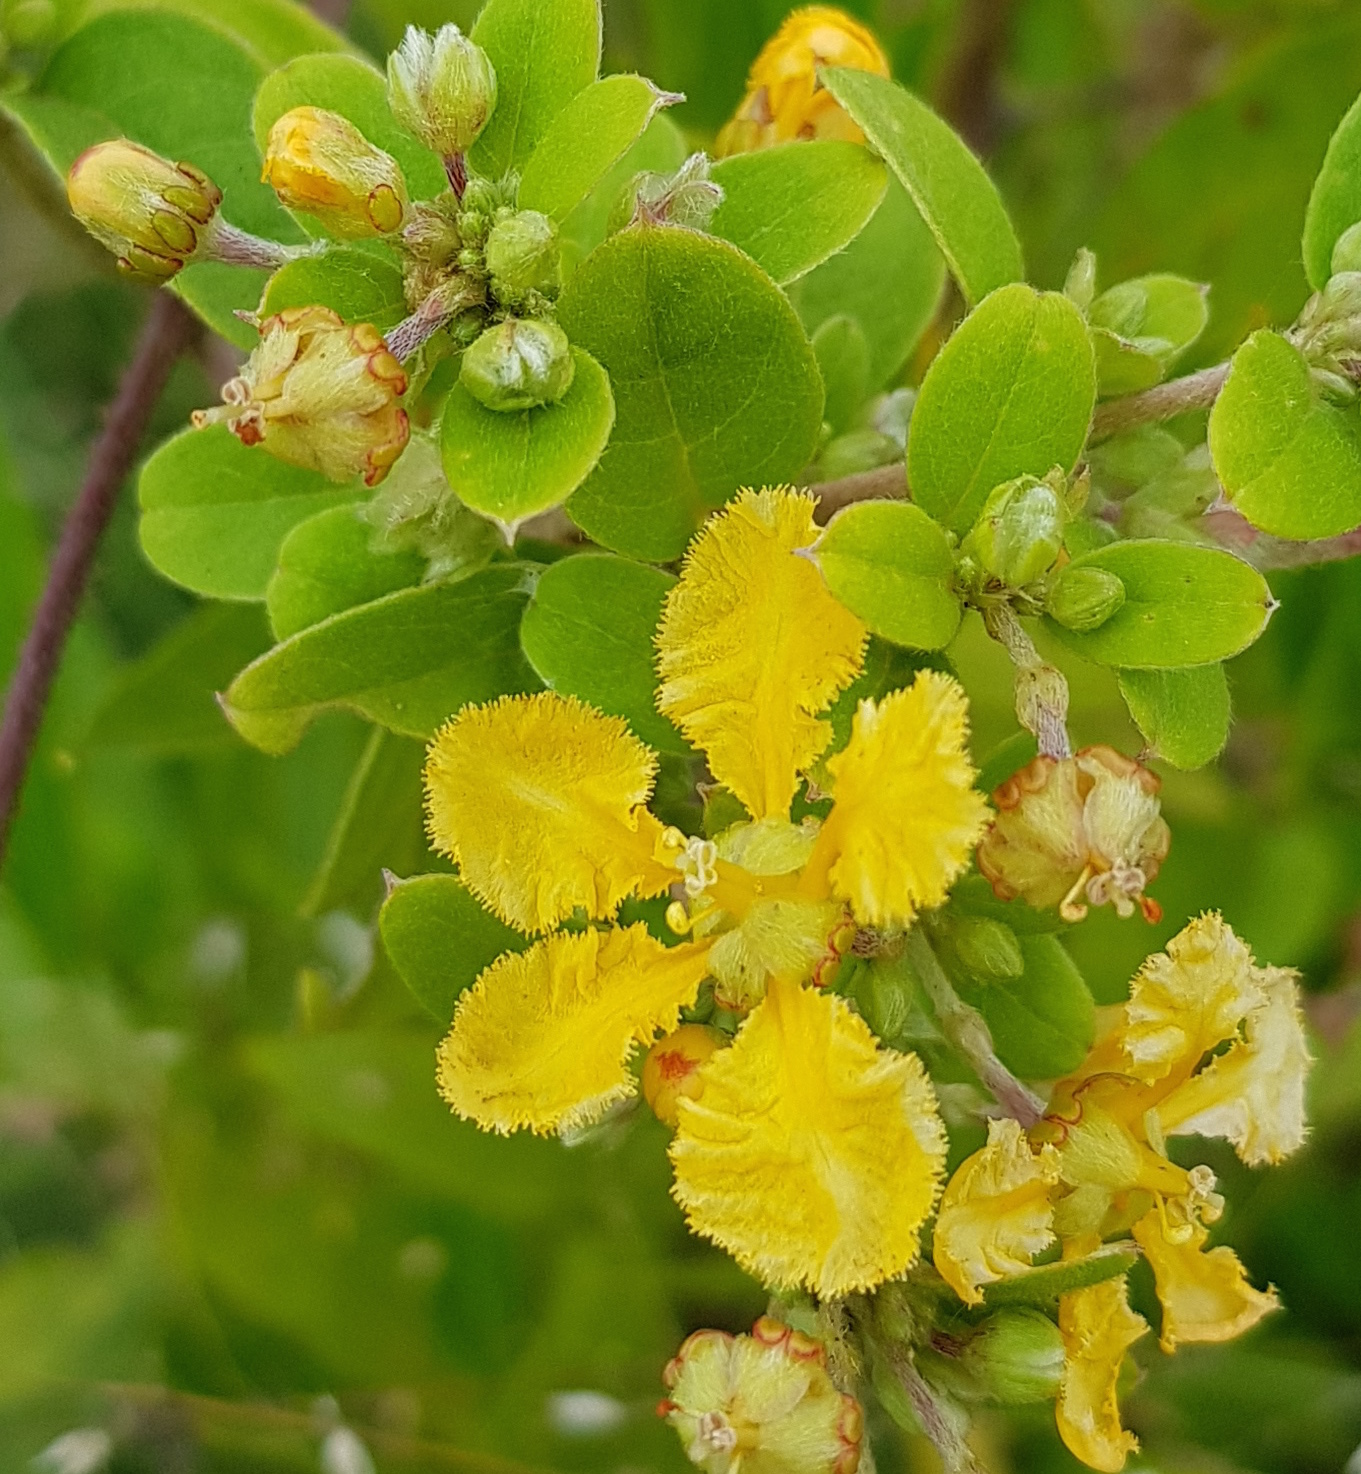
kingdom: Plantae
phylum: Tracheophyta
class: Magnoliopsida
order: Malpighiales
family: Malpighiaceae
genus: Gaudichaudia
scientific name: Gaudichaudia albida
